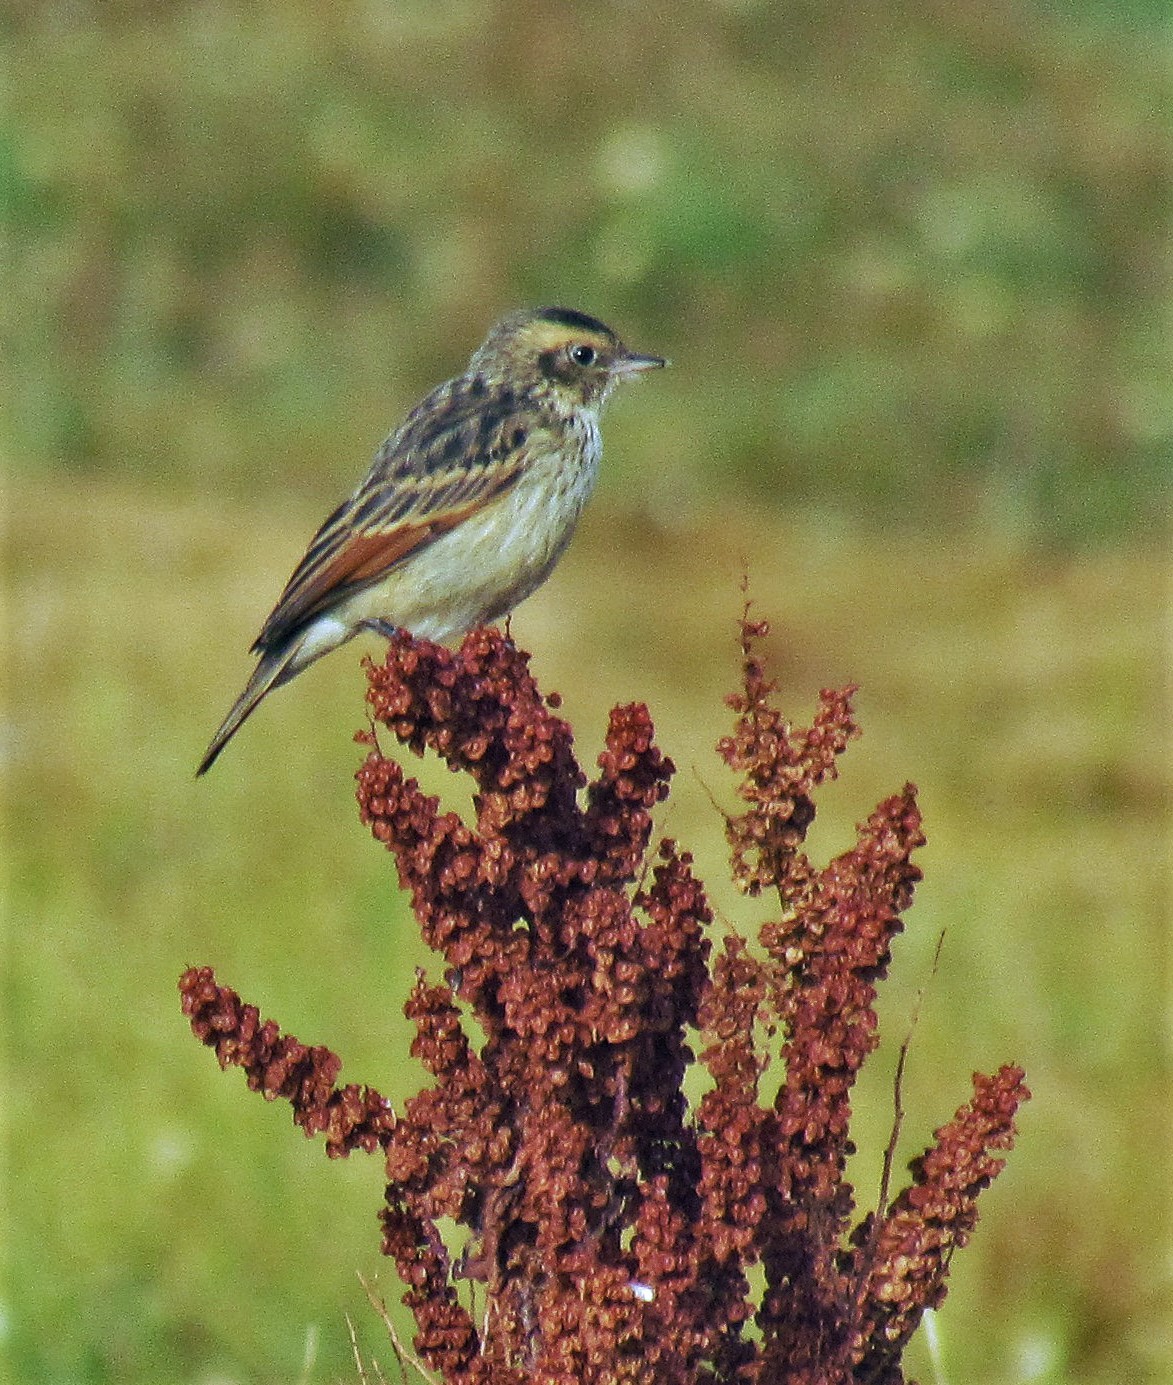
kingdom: Animalia
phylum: Chordata
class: Aves
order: Passeriformes
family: Tyrannidae
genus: Hymenops
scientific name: Hymenops perspicillatus
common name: Spectacled tyrant
